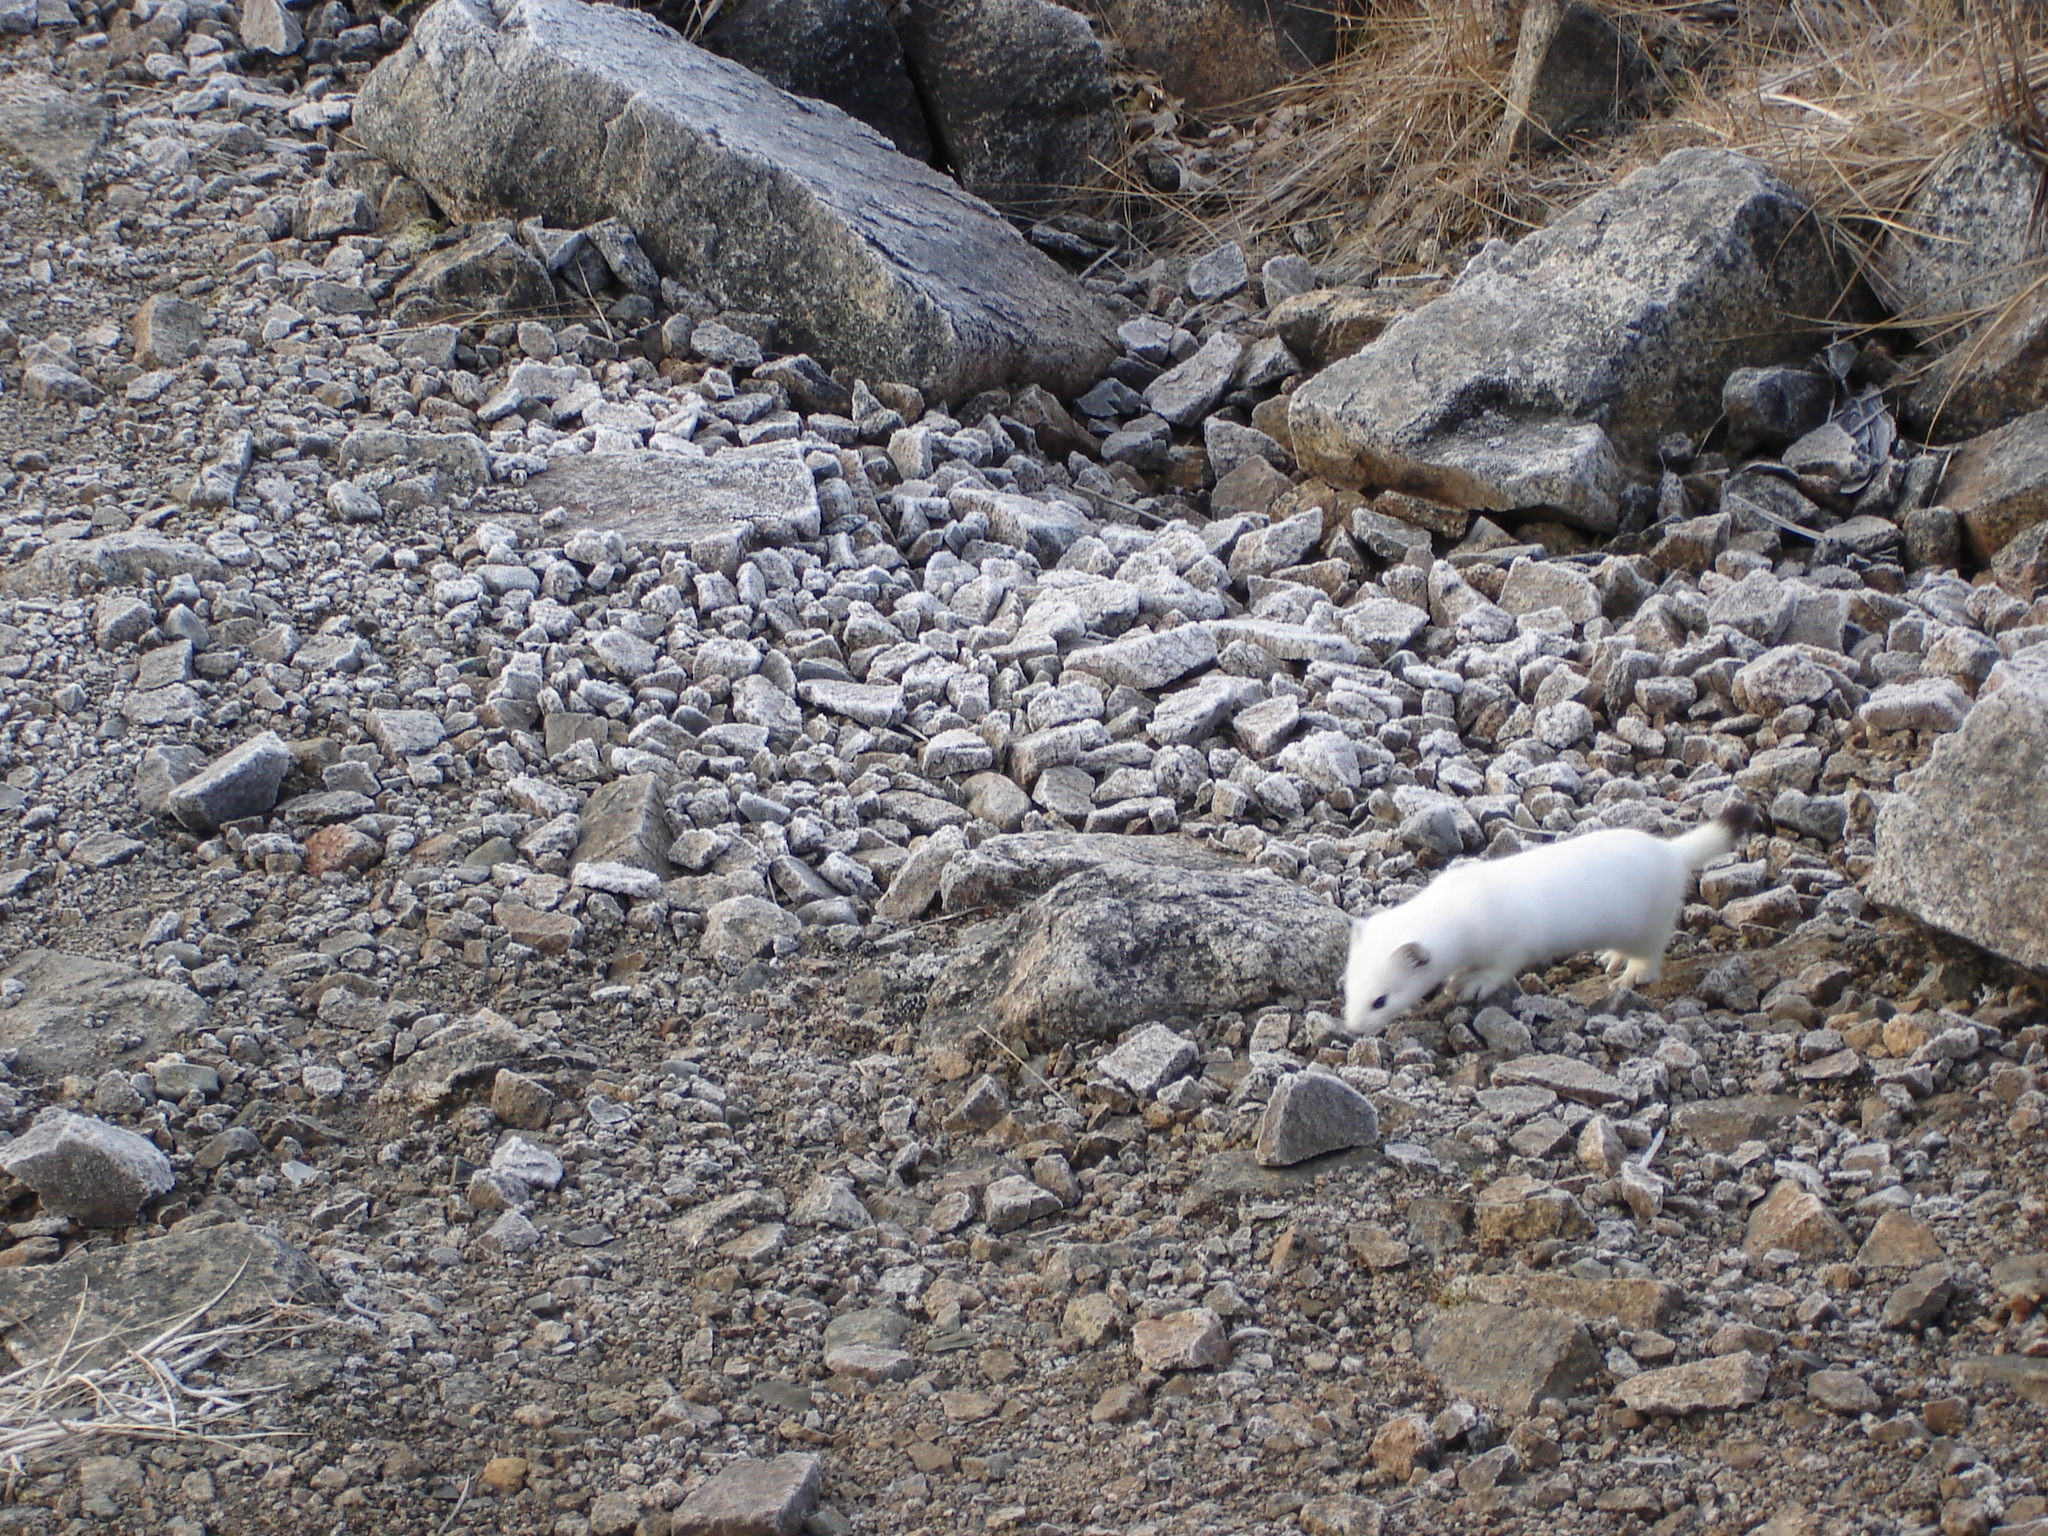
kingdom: Animalia
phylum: Chordata
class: Mammalia
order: Carnivora
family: Mustelidae
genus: Mustela
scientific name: Mustela erminea
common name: Stoat
